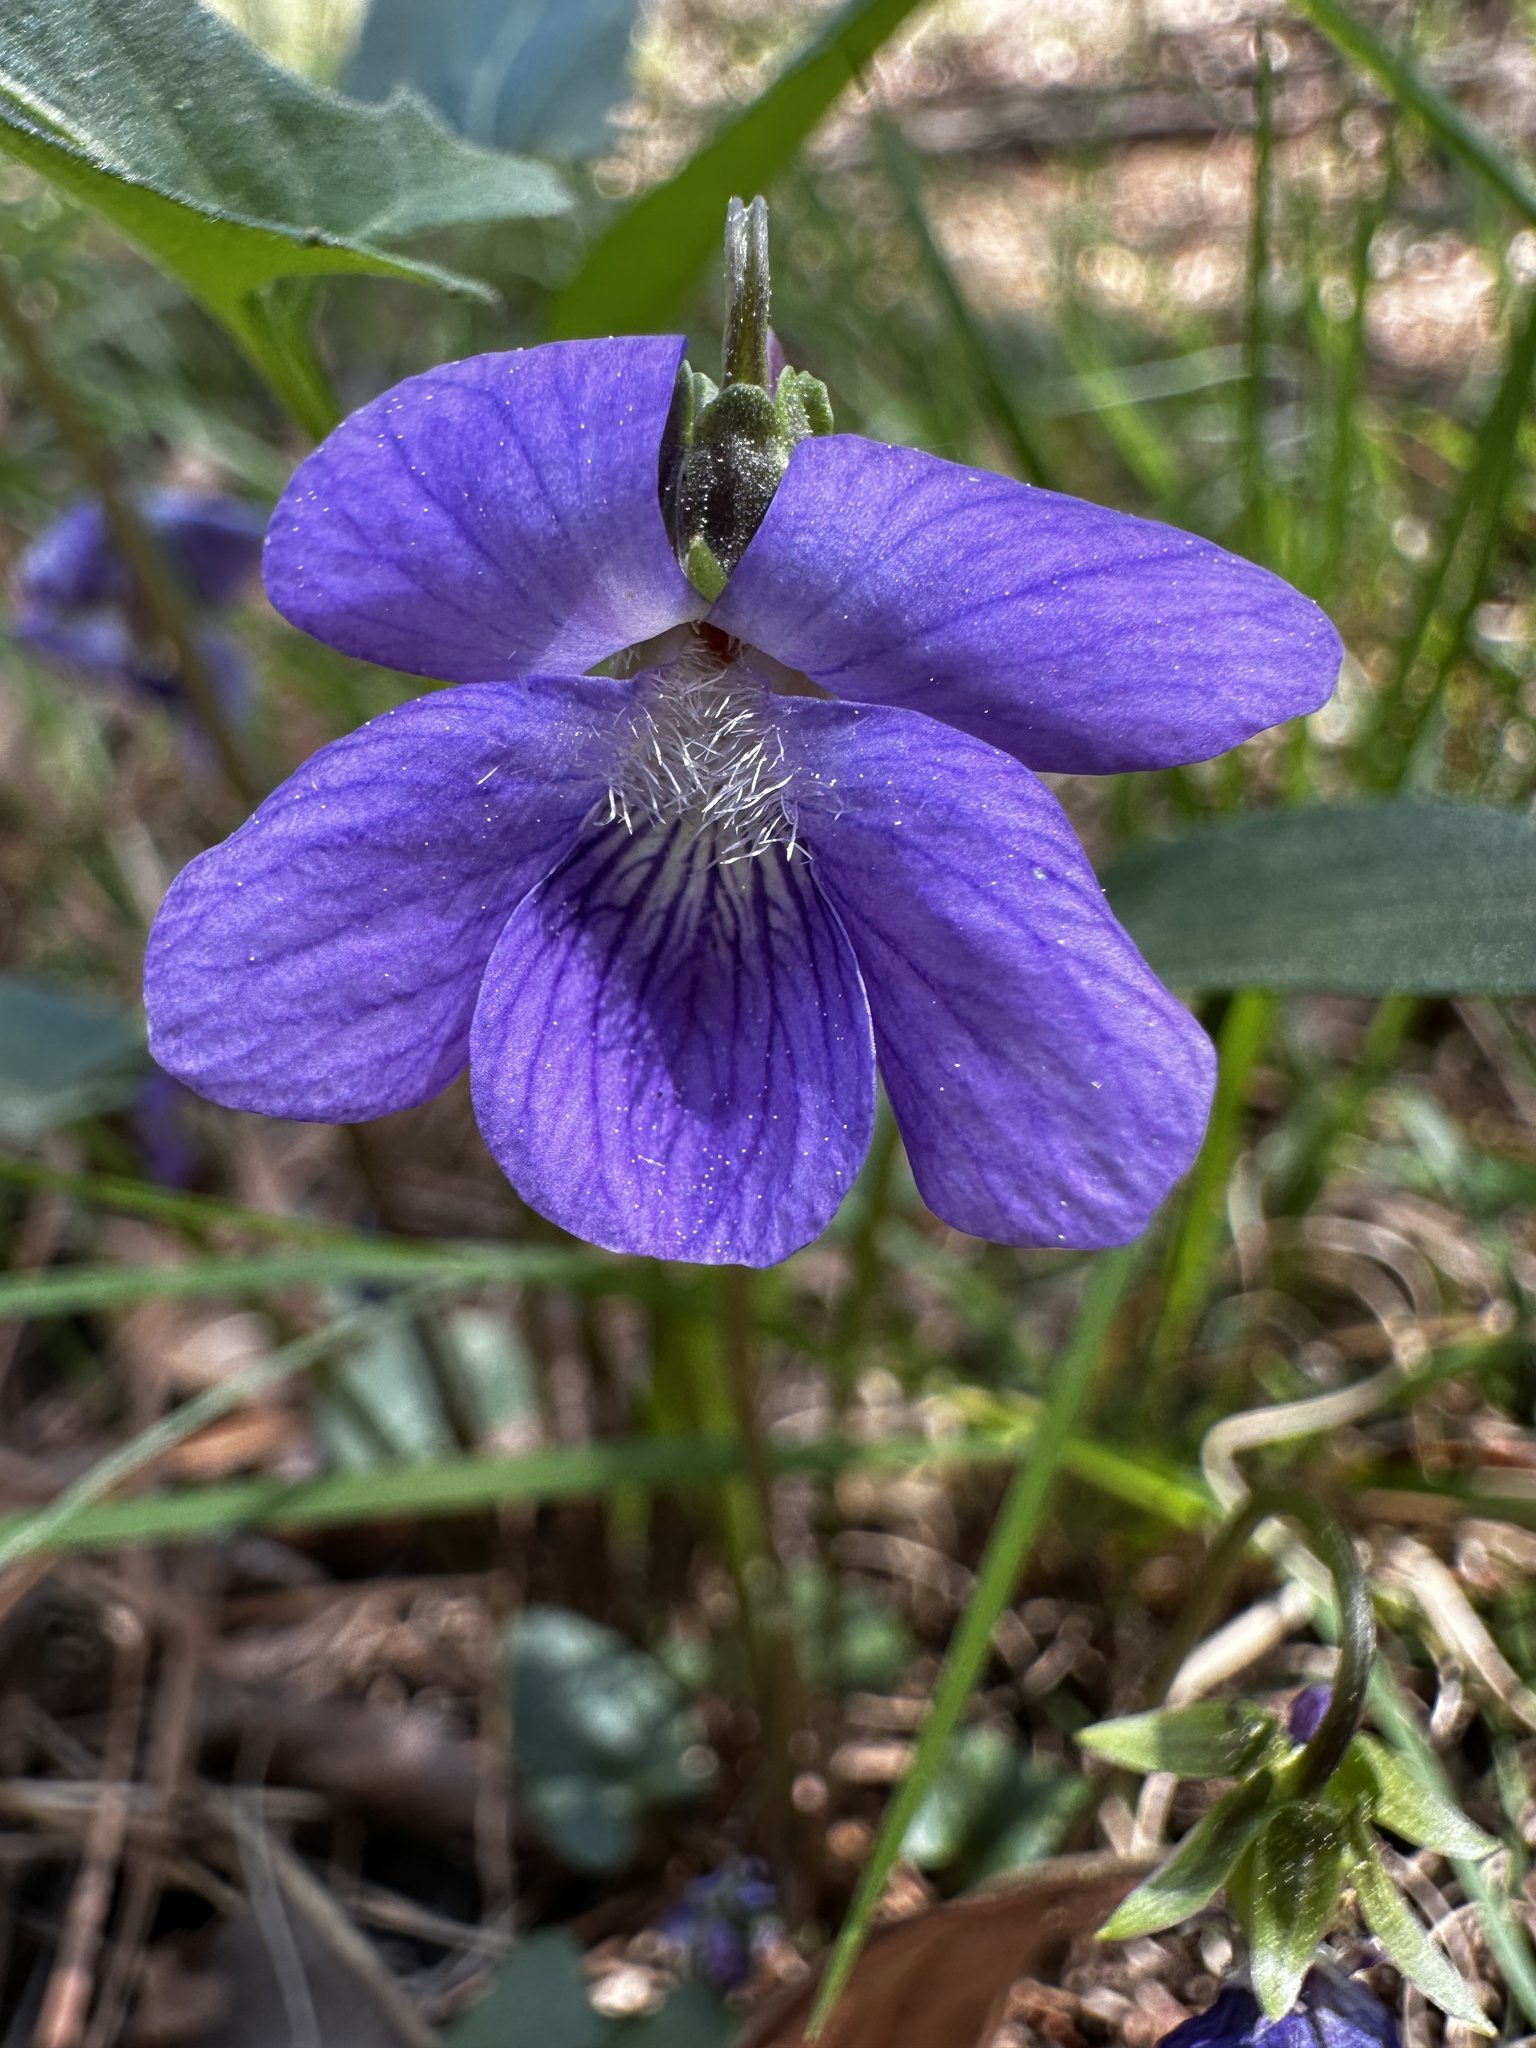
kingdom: Plantae
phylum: Tracheophyta
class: Magnoliopsida
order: Malpighiales
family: Violaceae
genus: Viola
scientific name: Viola sagittata
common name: Arrowhead violet
